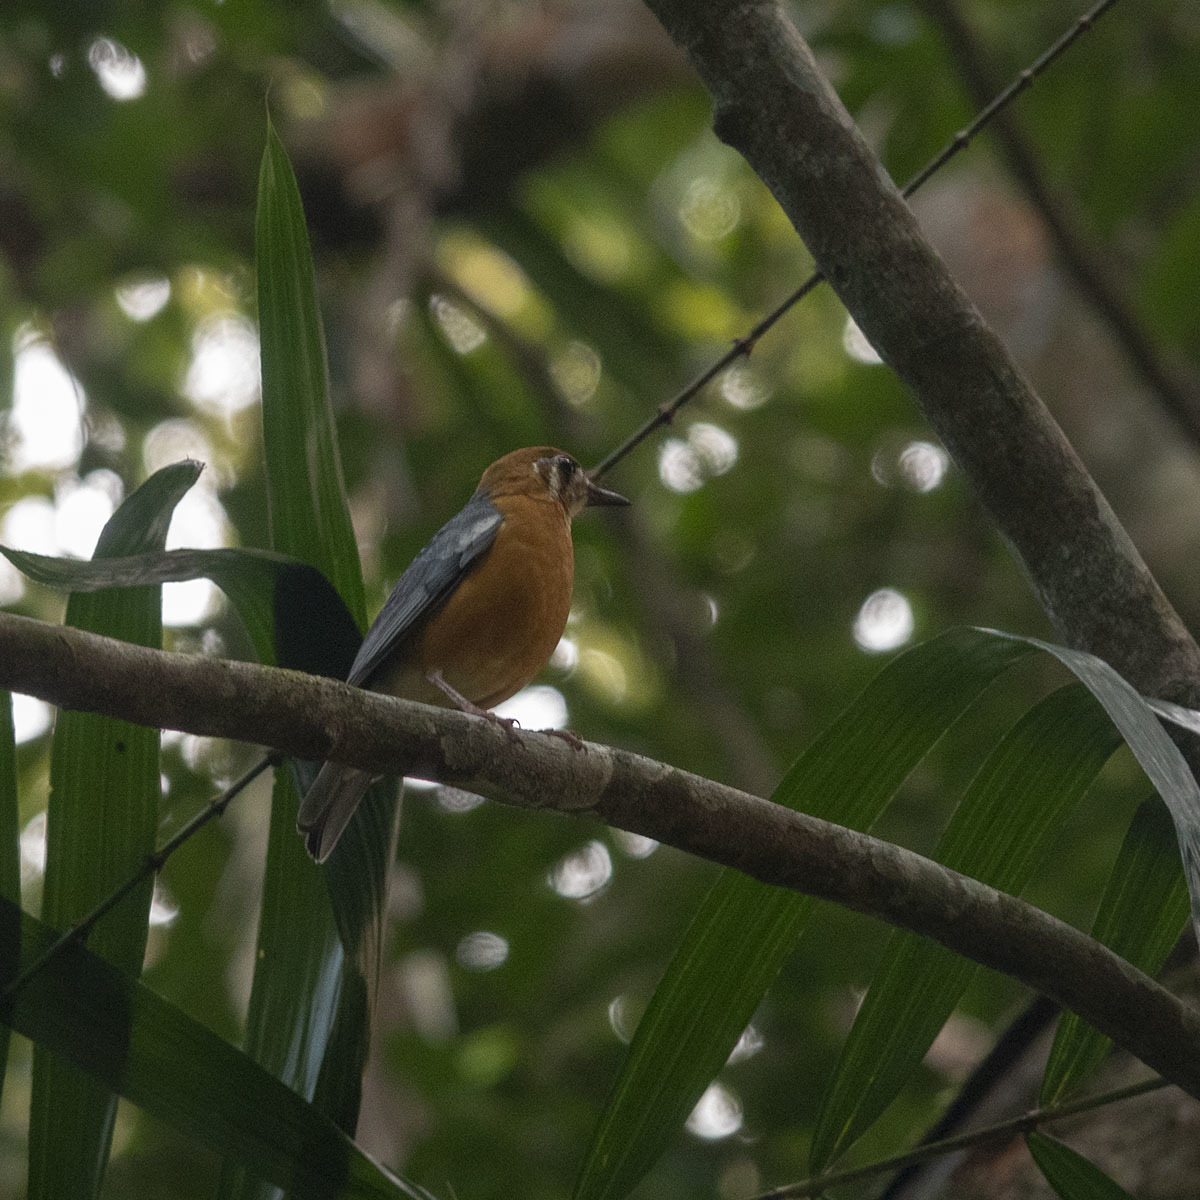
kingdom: Animalia
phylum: Chordata
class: Aves
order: Passeriformes
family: Turdidae
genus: Geokichla
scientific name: Geokichla citrina
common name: Orange-headed thrush
